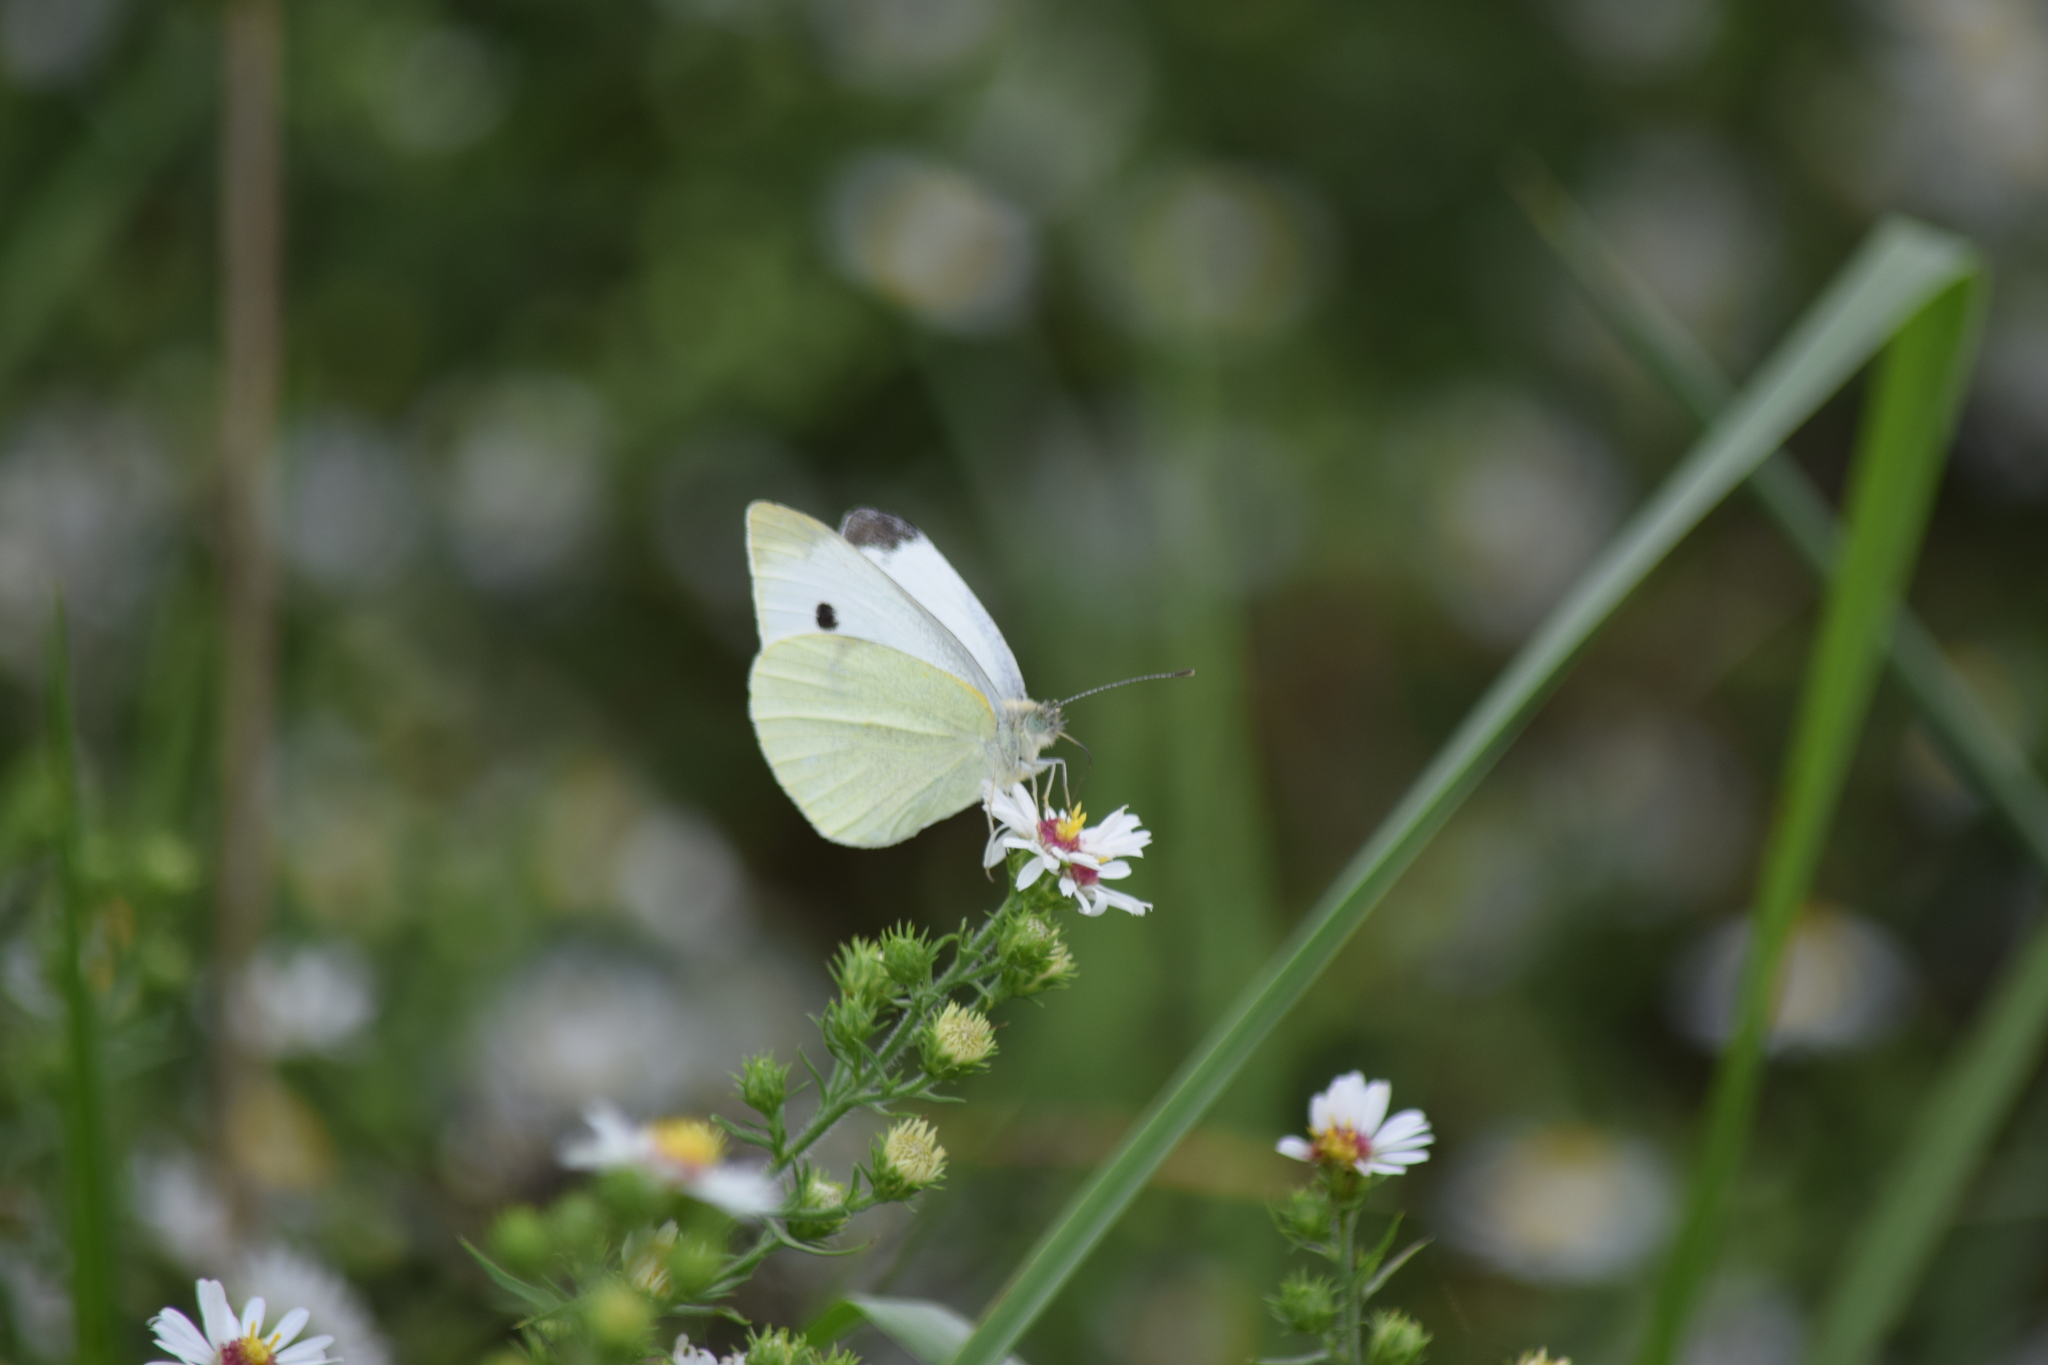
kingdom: Animalia
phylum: Arthropoda
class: Insecta
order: Lepidoptera
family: Pieridae
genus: Pieris
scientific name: Pieris rapae
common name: Small white
